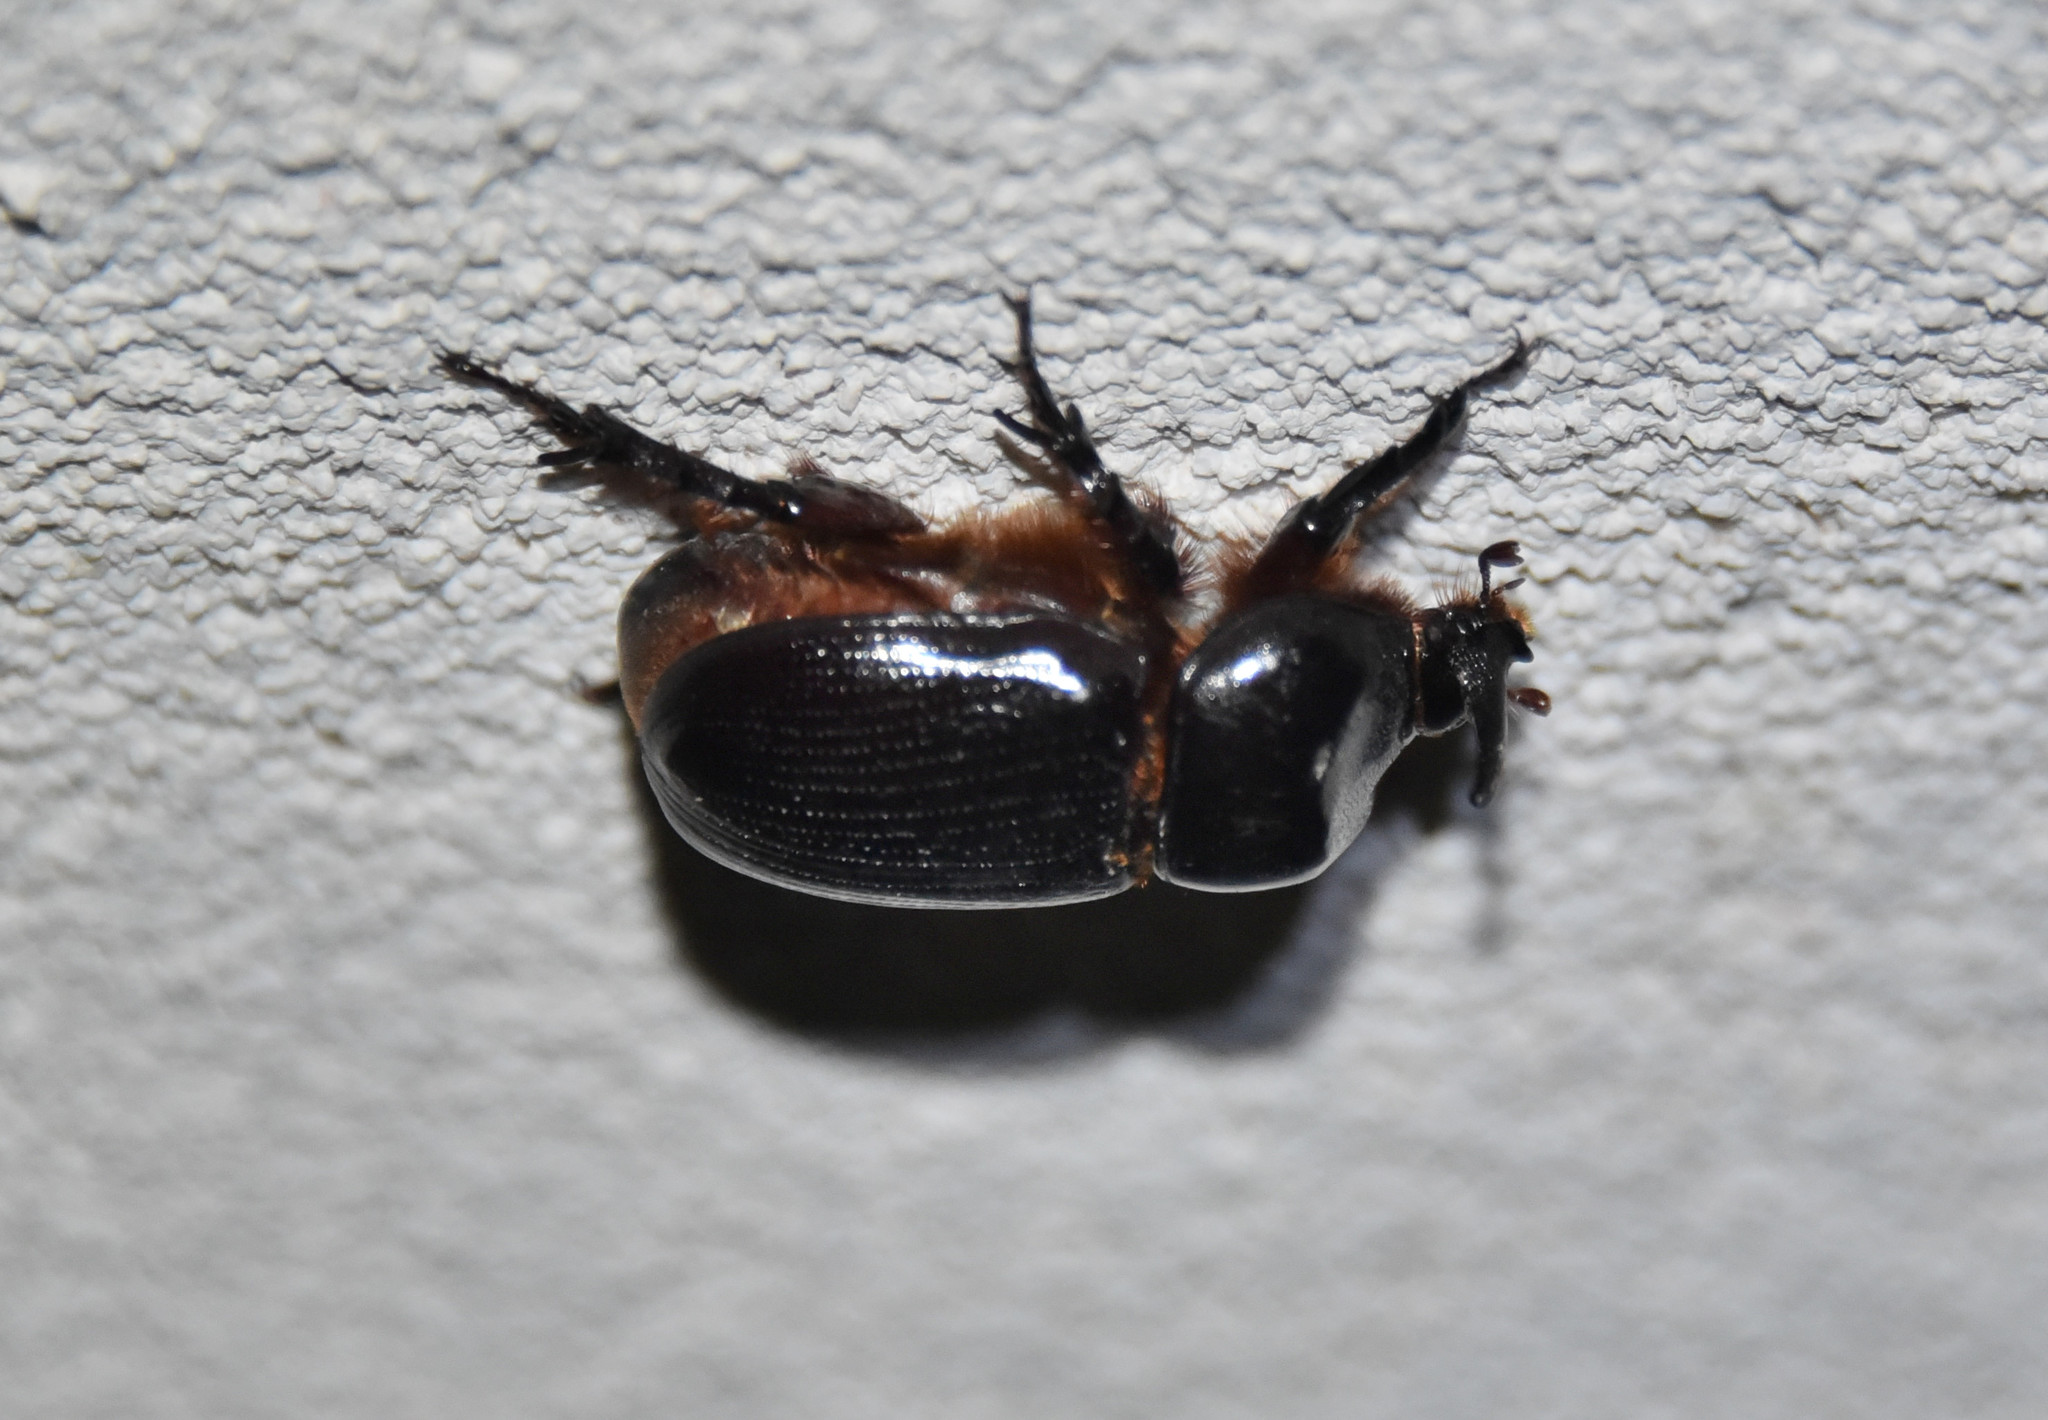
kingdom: Animalia
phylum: Arthropoda
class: Insecta
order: Coleoptera
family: Scarabaeidae
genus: Xyloryctes
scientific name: Xyloryctes thestalus
